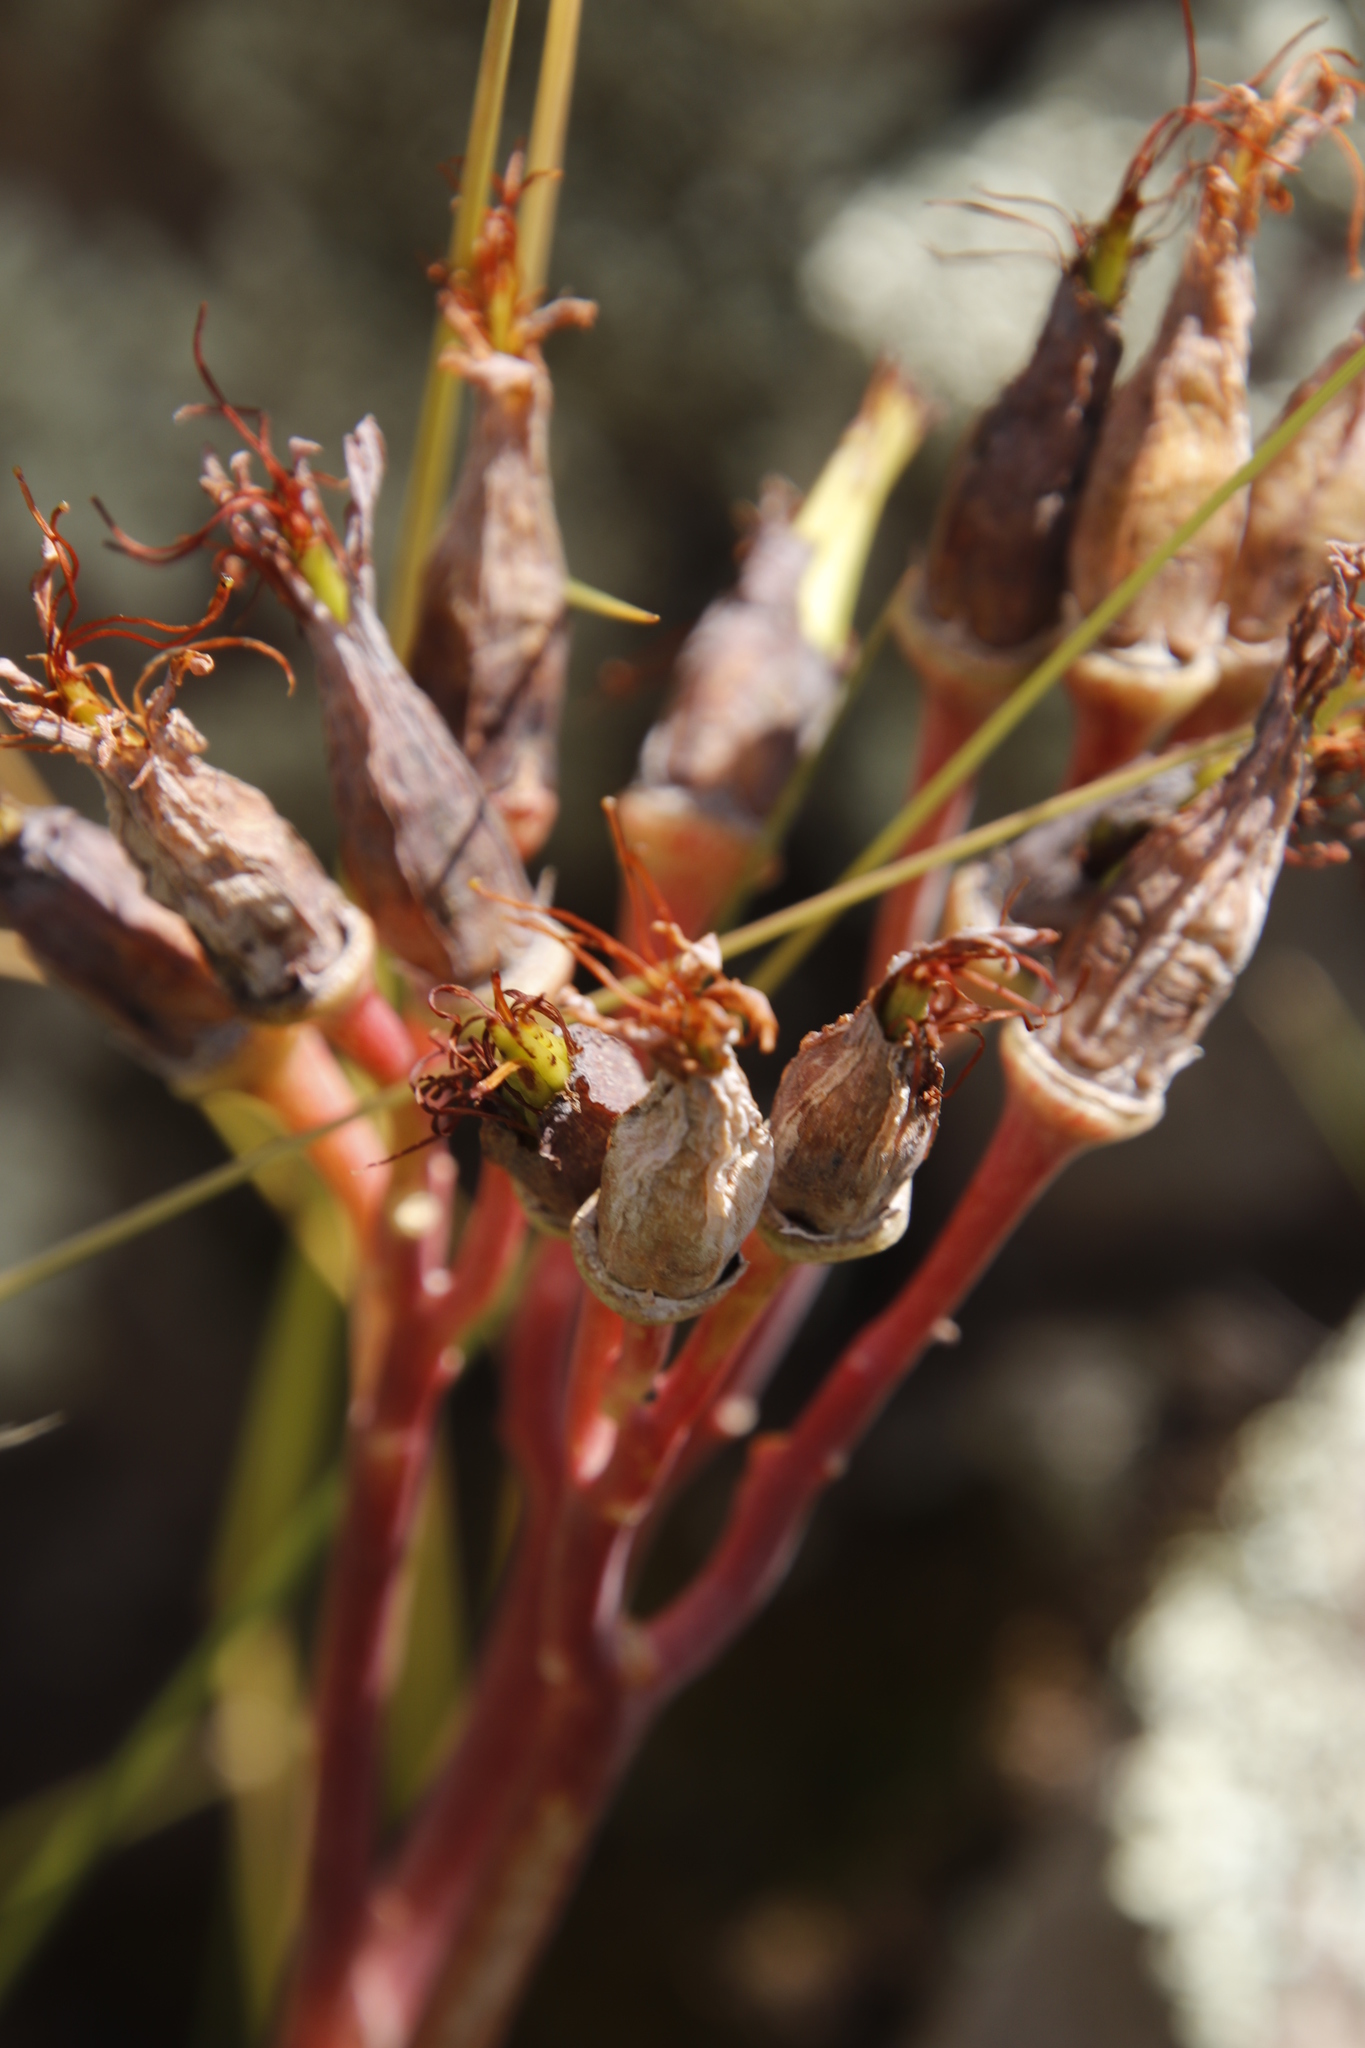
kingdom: Plantae
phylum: Tracheophyta
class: Magnoliopsida
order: Saxifragales
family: Crassulaceae
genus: Cotyledon
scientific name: Cotyledon orbiculata
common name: Pig's ear
